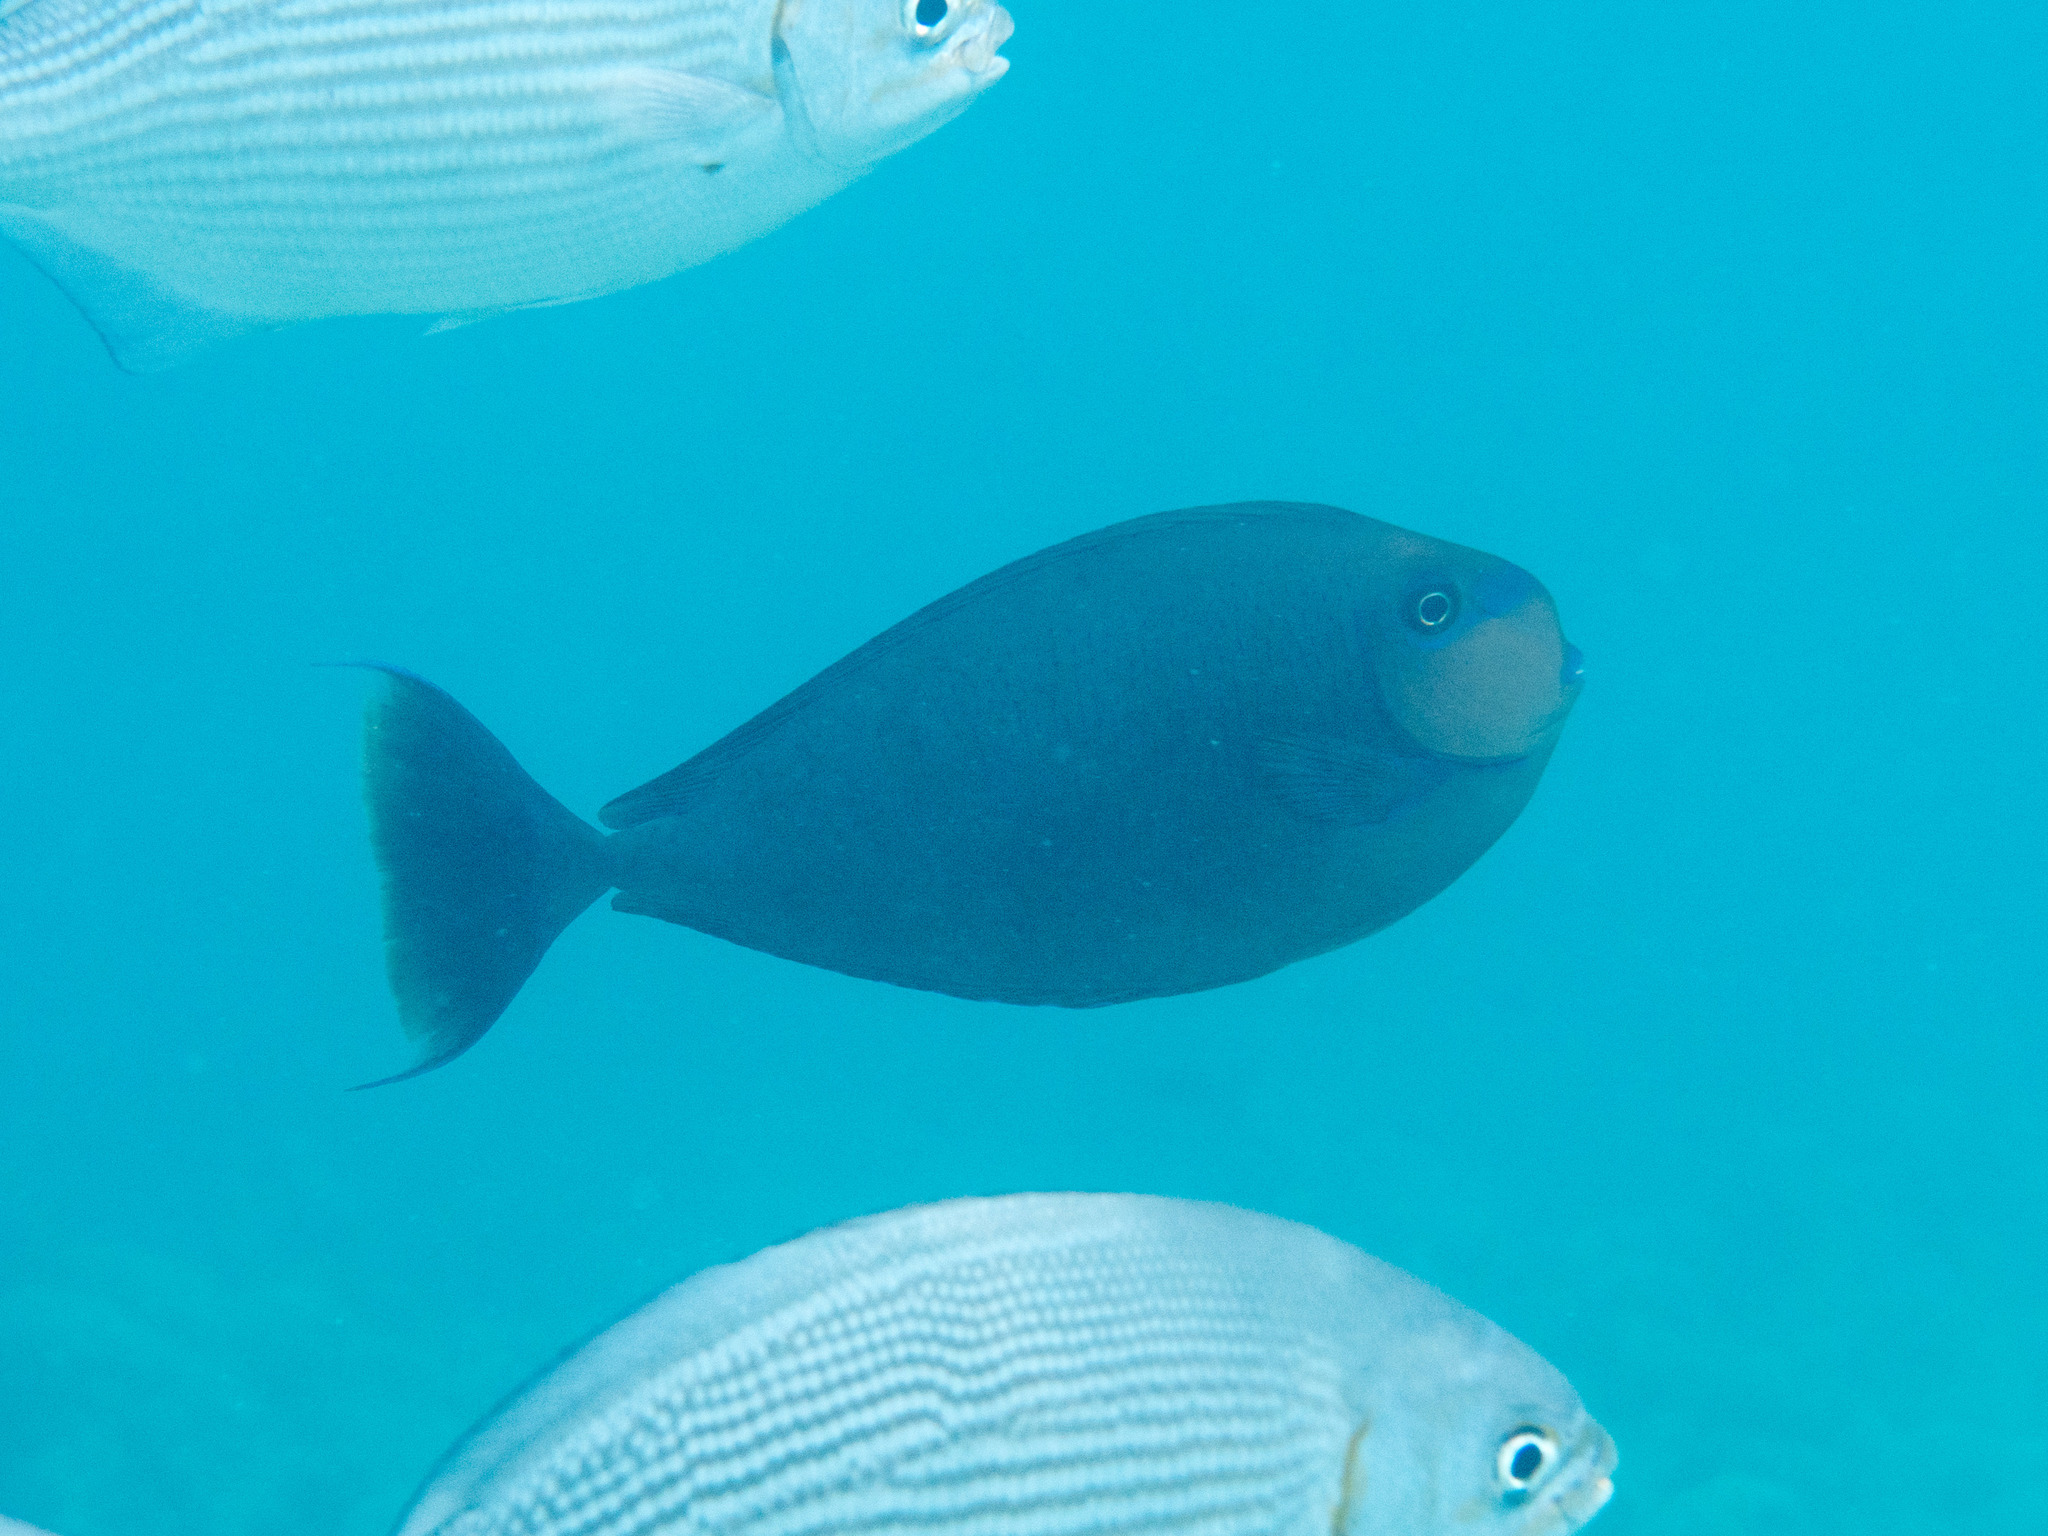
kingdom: Animalia
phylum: Chordata
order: Perciformes
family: Acanthuridae
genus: Naso
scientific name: Naso vlamingii
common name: Big-nose unicorn
